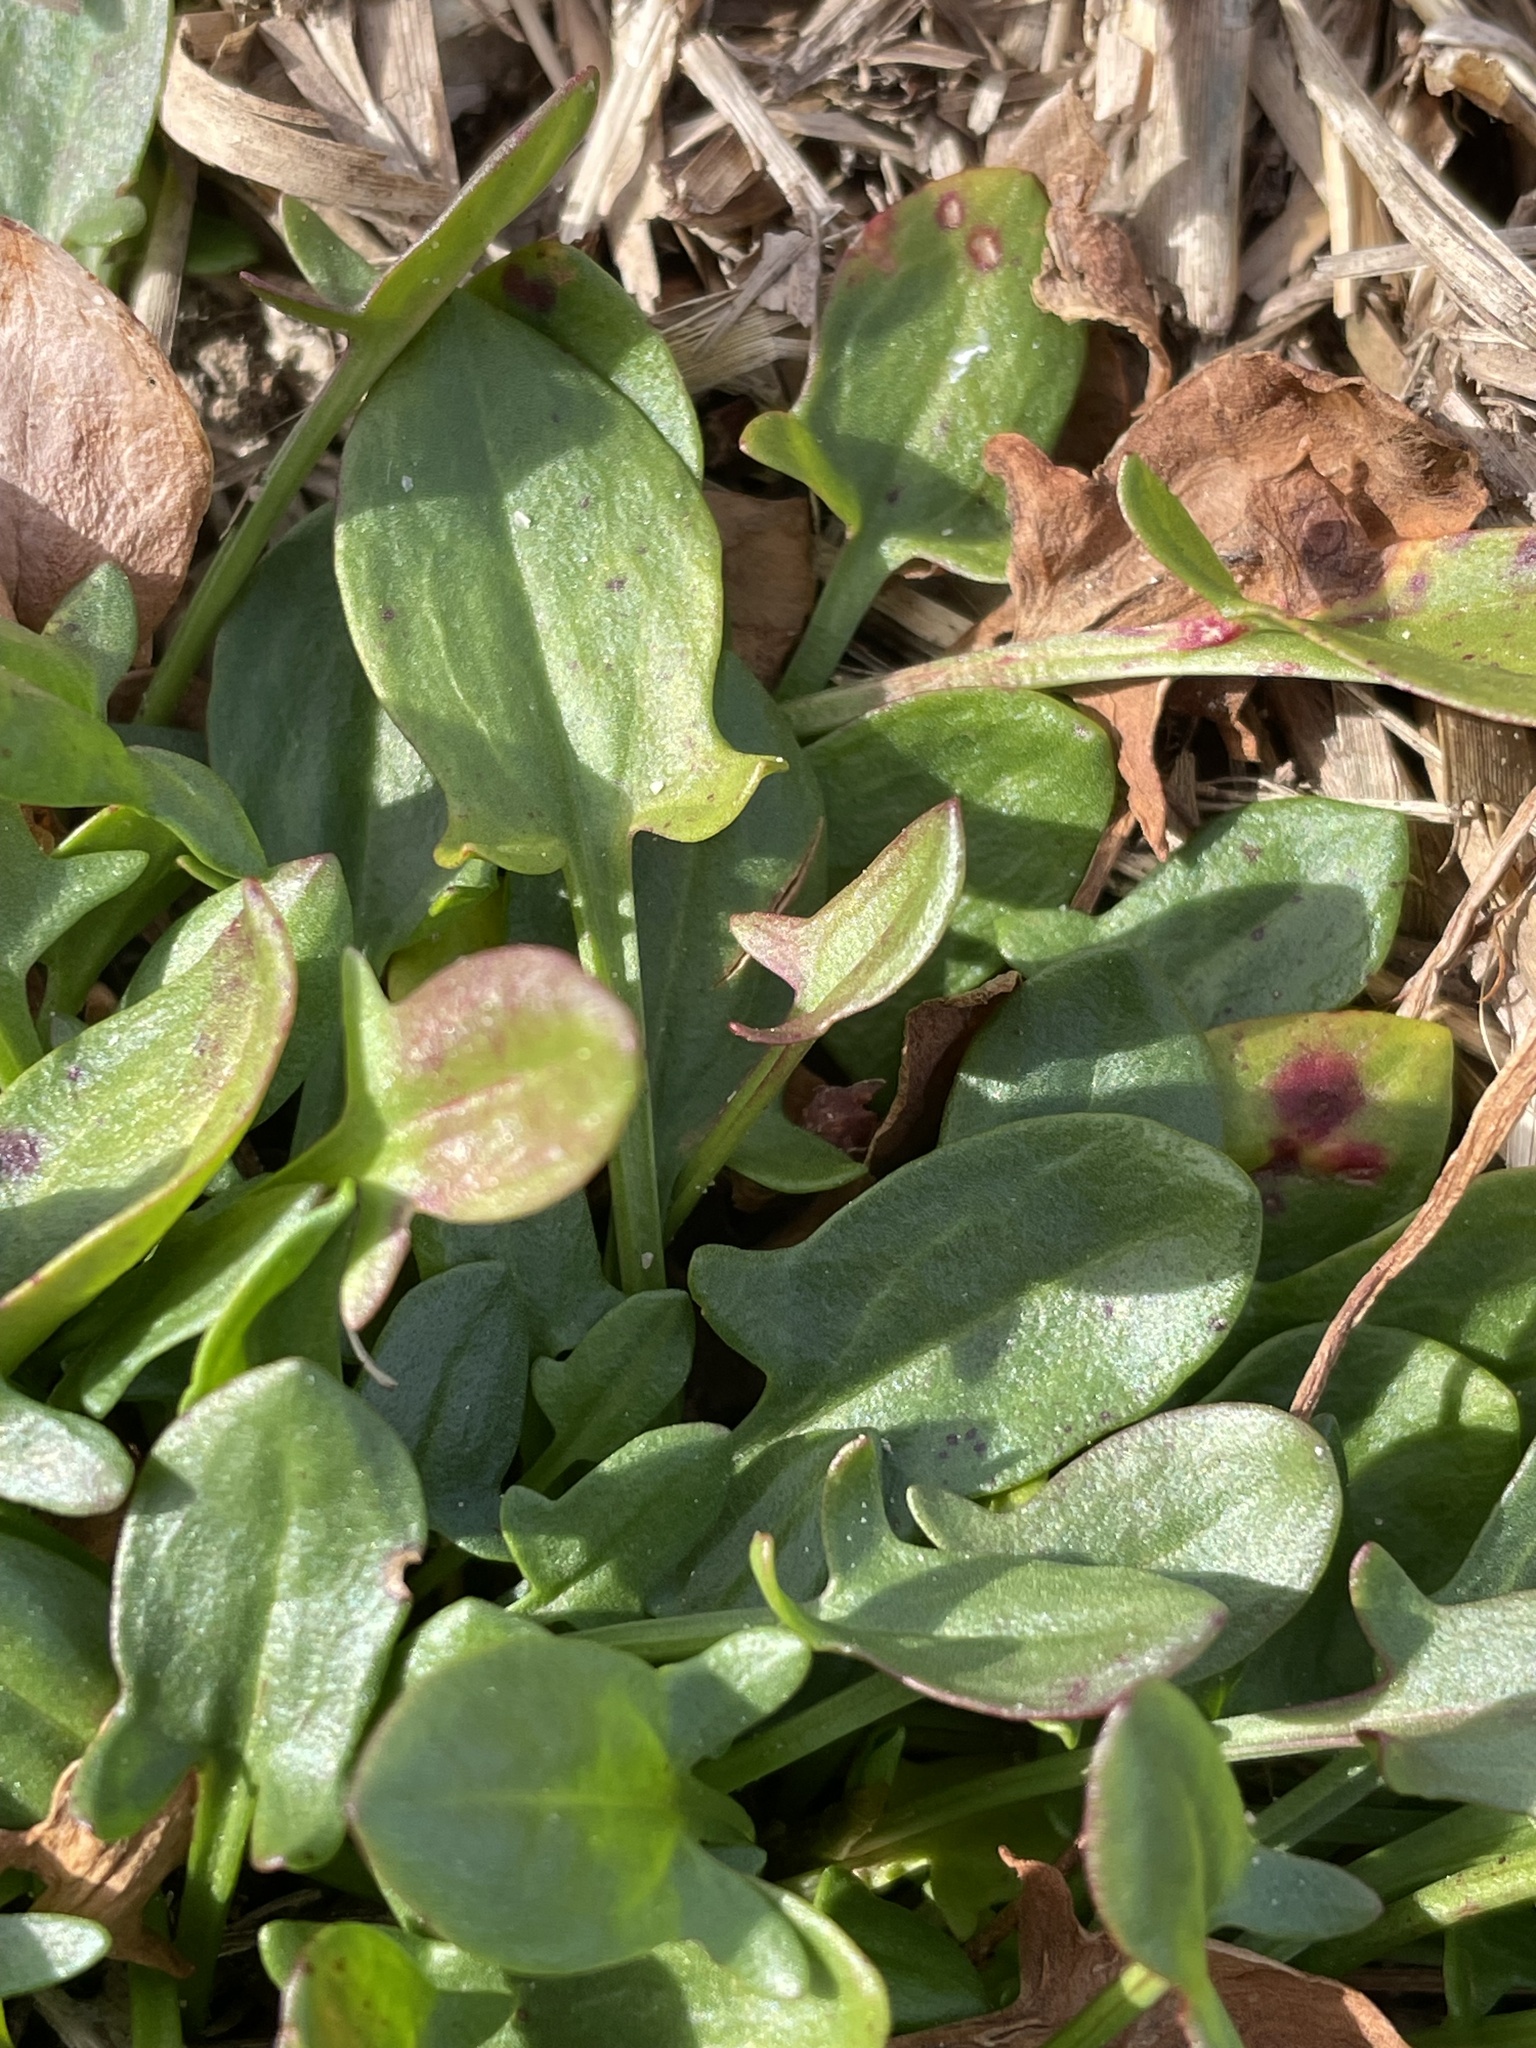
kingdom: Plantae
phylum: Tracheophyta
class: Magnoliopsida
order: Caryophyllales
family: Polygonaceae
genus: Rumex
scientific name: Rumex acetosella
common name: Common sheep sorrel
